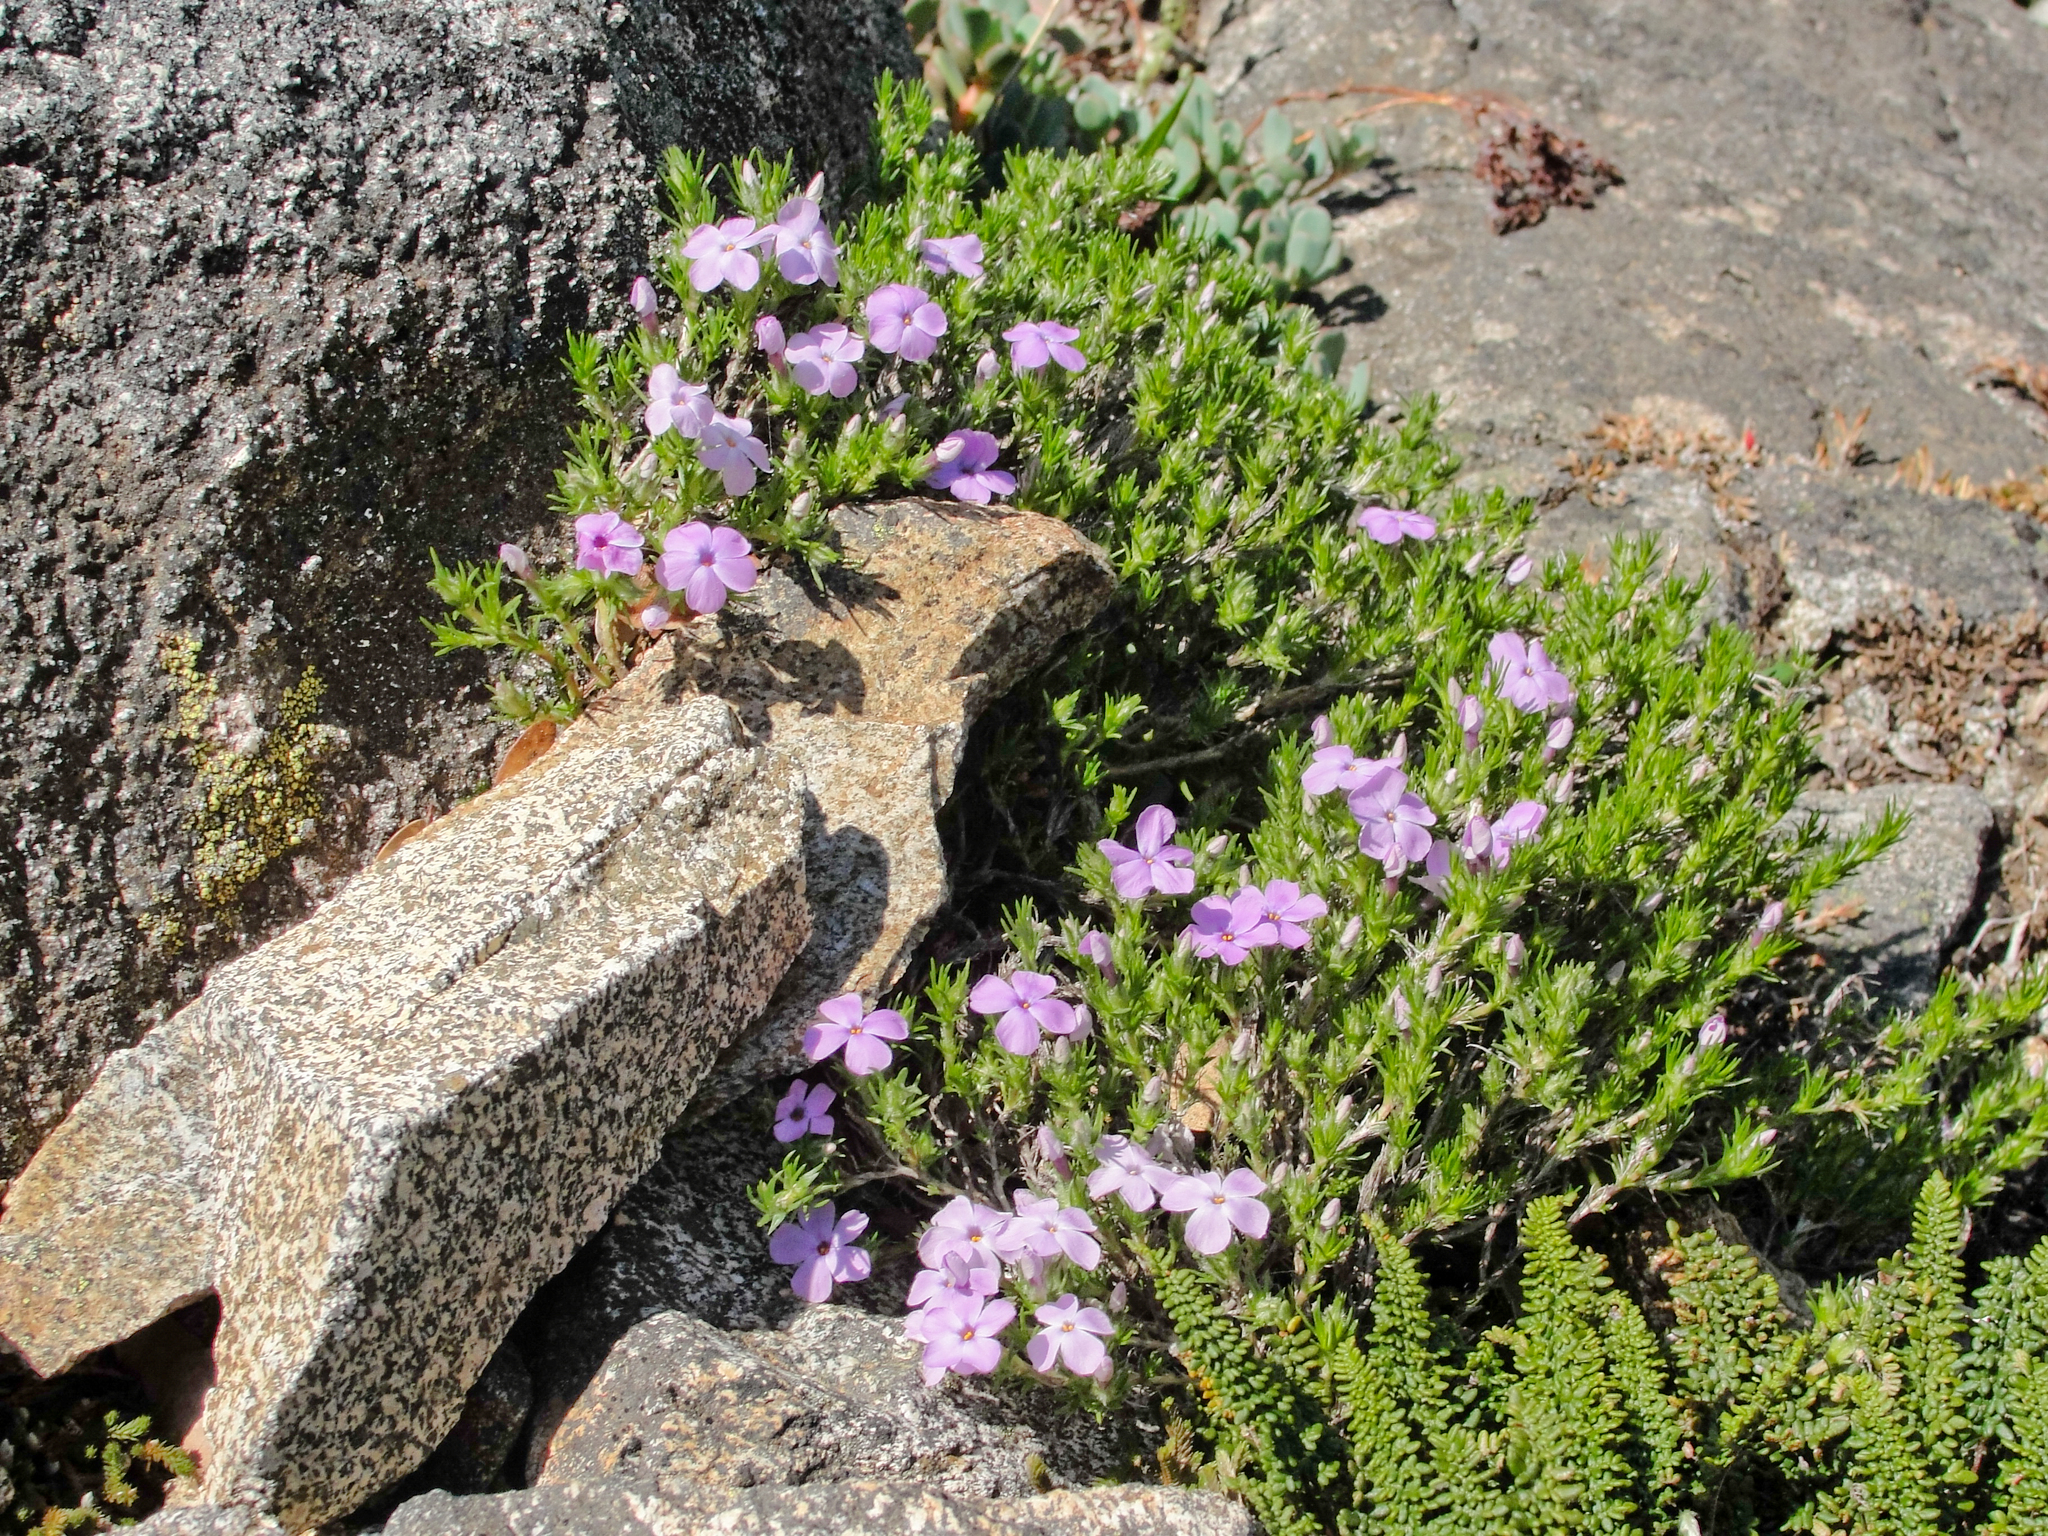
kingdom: Plantae
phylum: Tracheophyta
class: Magnoliopsida
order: Ericales
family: Polemoniaceae
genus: Phlox
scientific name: Phlox diffusa
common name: Mat phlox
